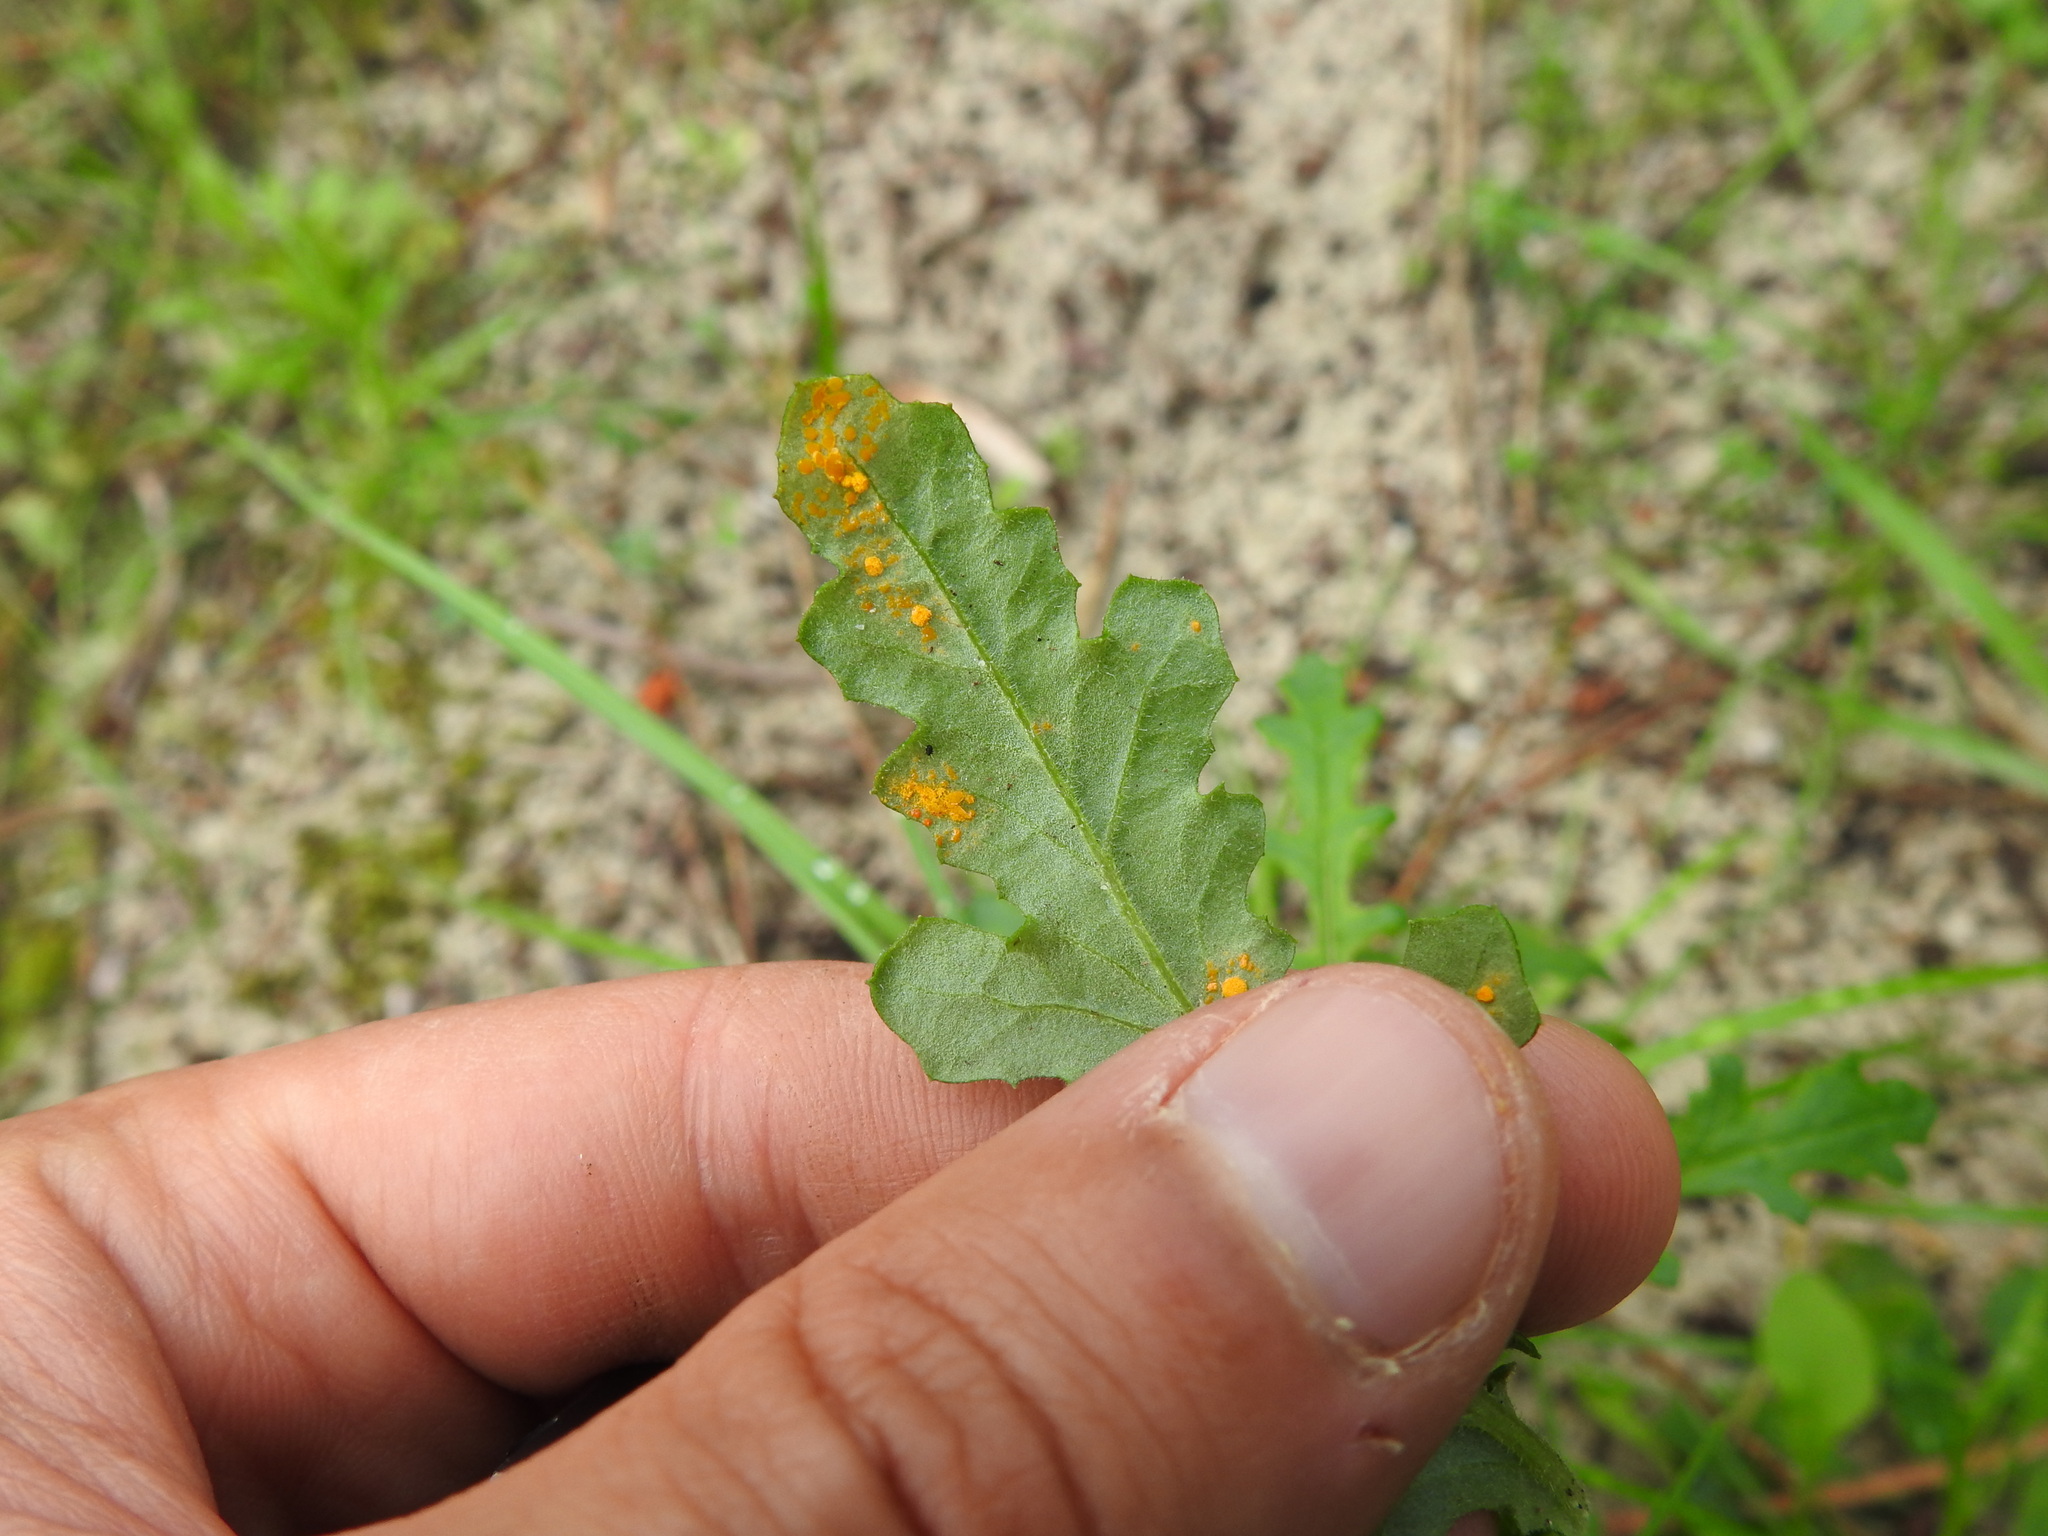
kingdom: Plantae
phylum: Tracheophyta
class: Magnoliopsida
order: Asterales
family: Asteraceae
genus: Senecio
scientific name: Senecio lividus
